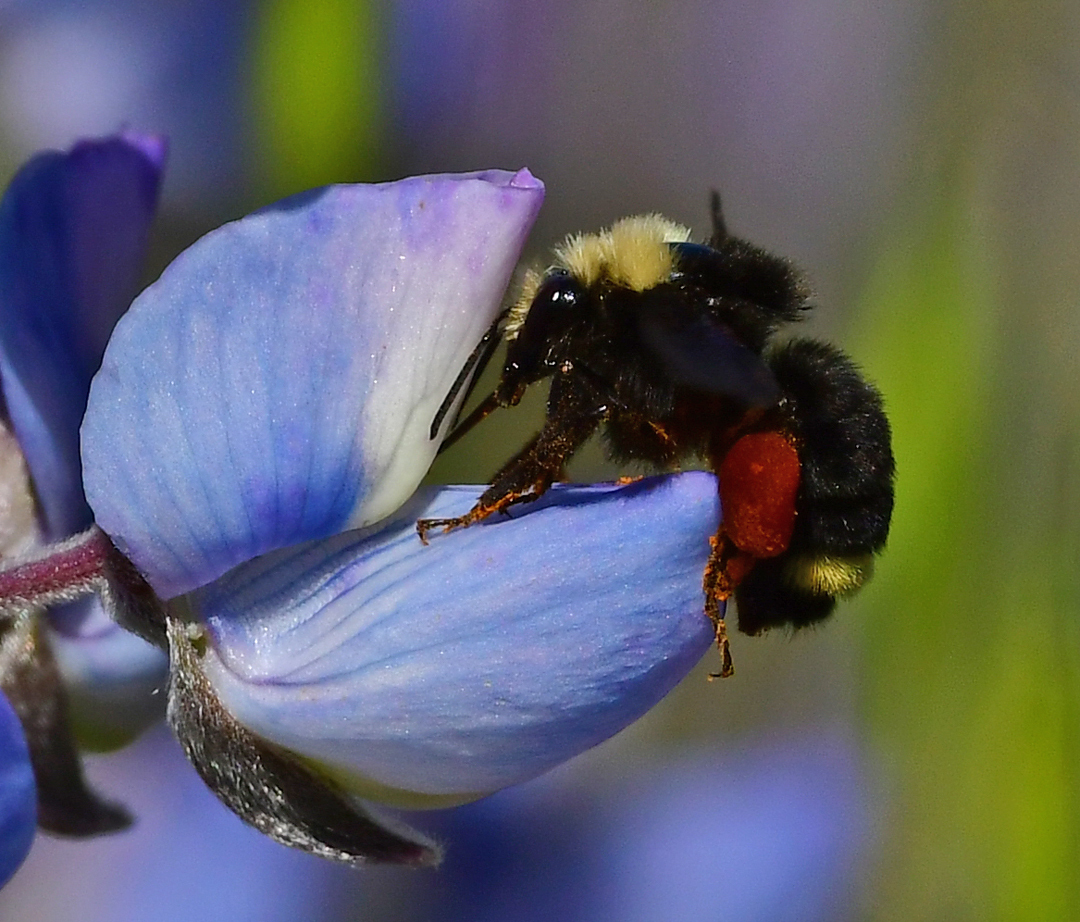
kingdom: Animalia
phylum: Arthropoda
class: Insecta
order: Hymenoptera
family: Apidae
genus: Bombus
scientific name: Bombus vosnesenskii
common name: Vosnesensky bumble bee
